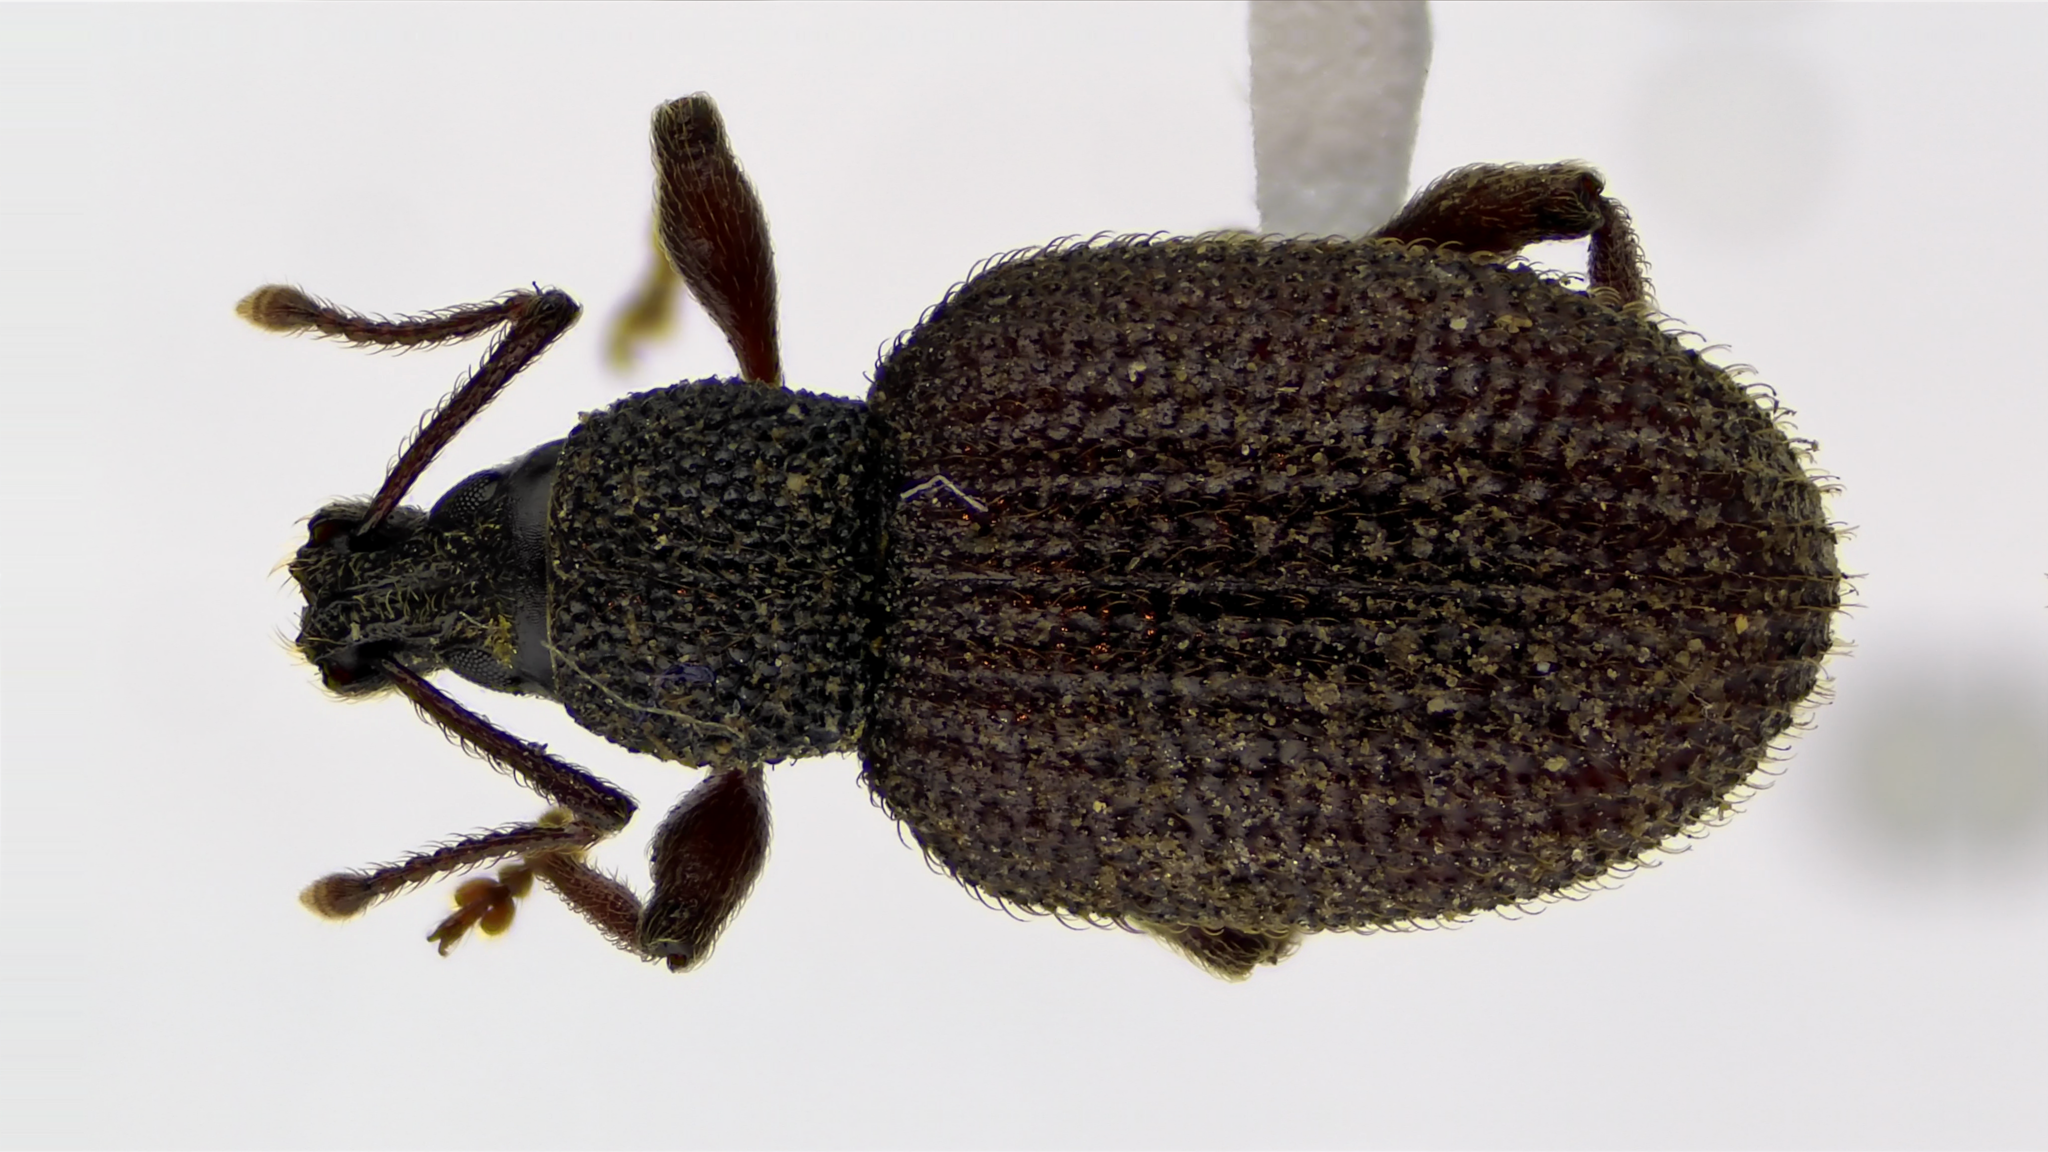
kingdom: Animalia
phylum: Arthropoda
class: Insecta
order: Coleoptera
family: Curculionidae
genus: Otiorhynchus
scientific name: Otiorhynchus rugosostriatus
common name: Weevil
